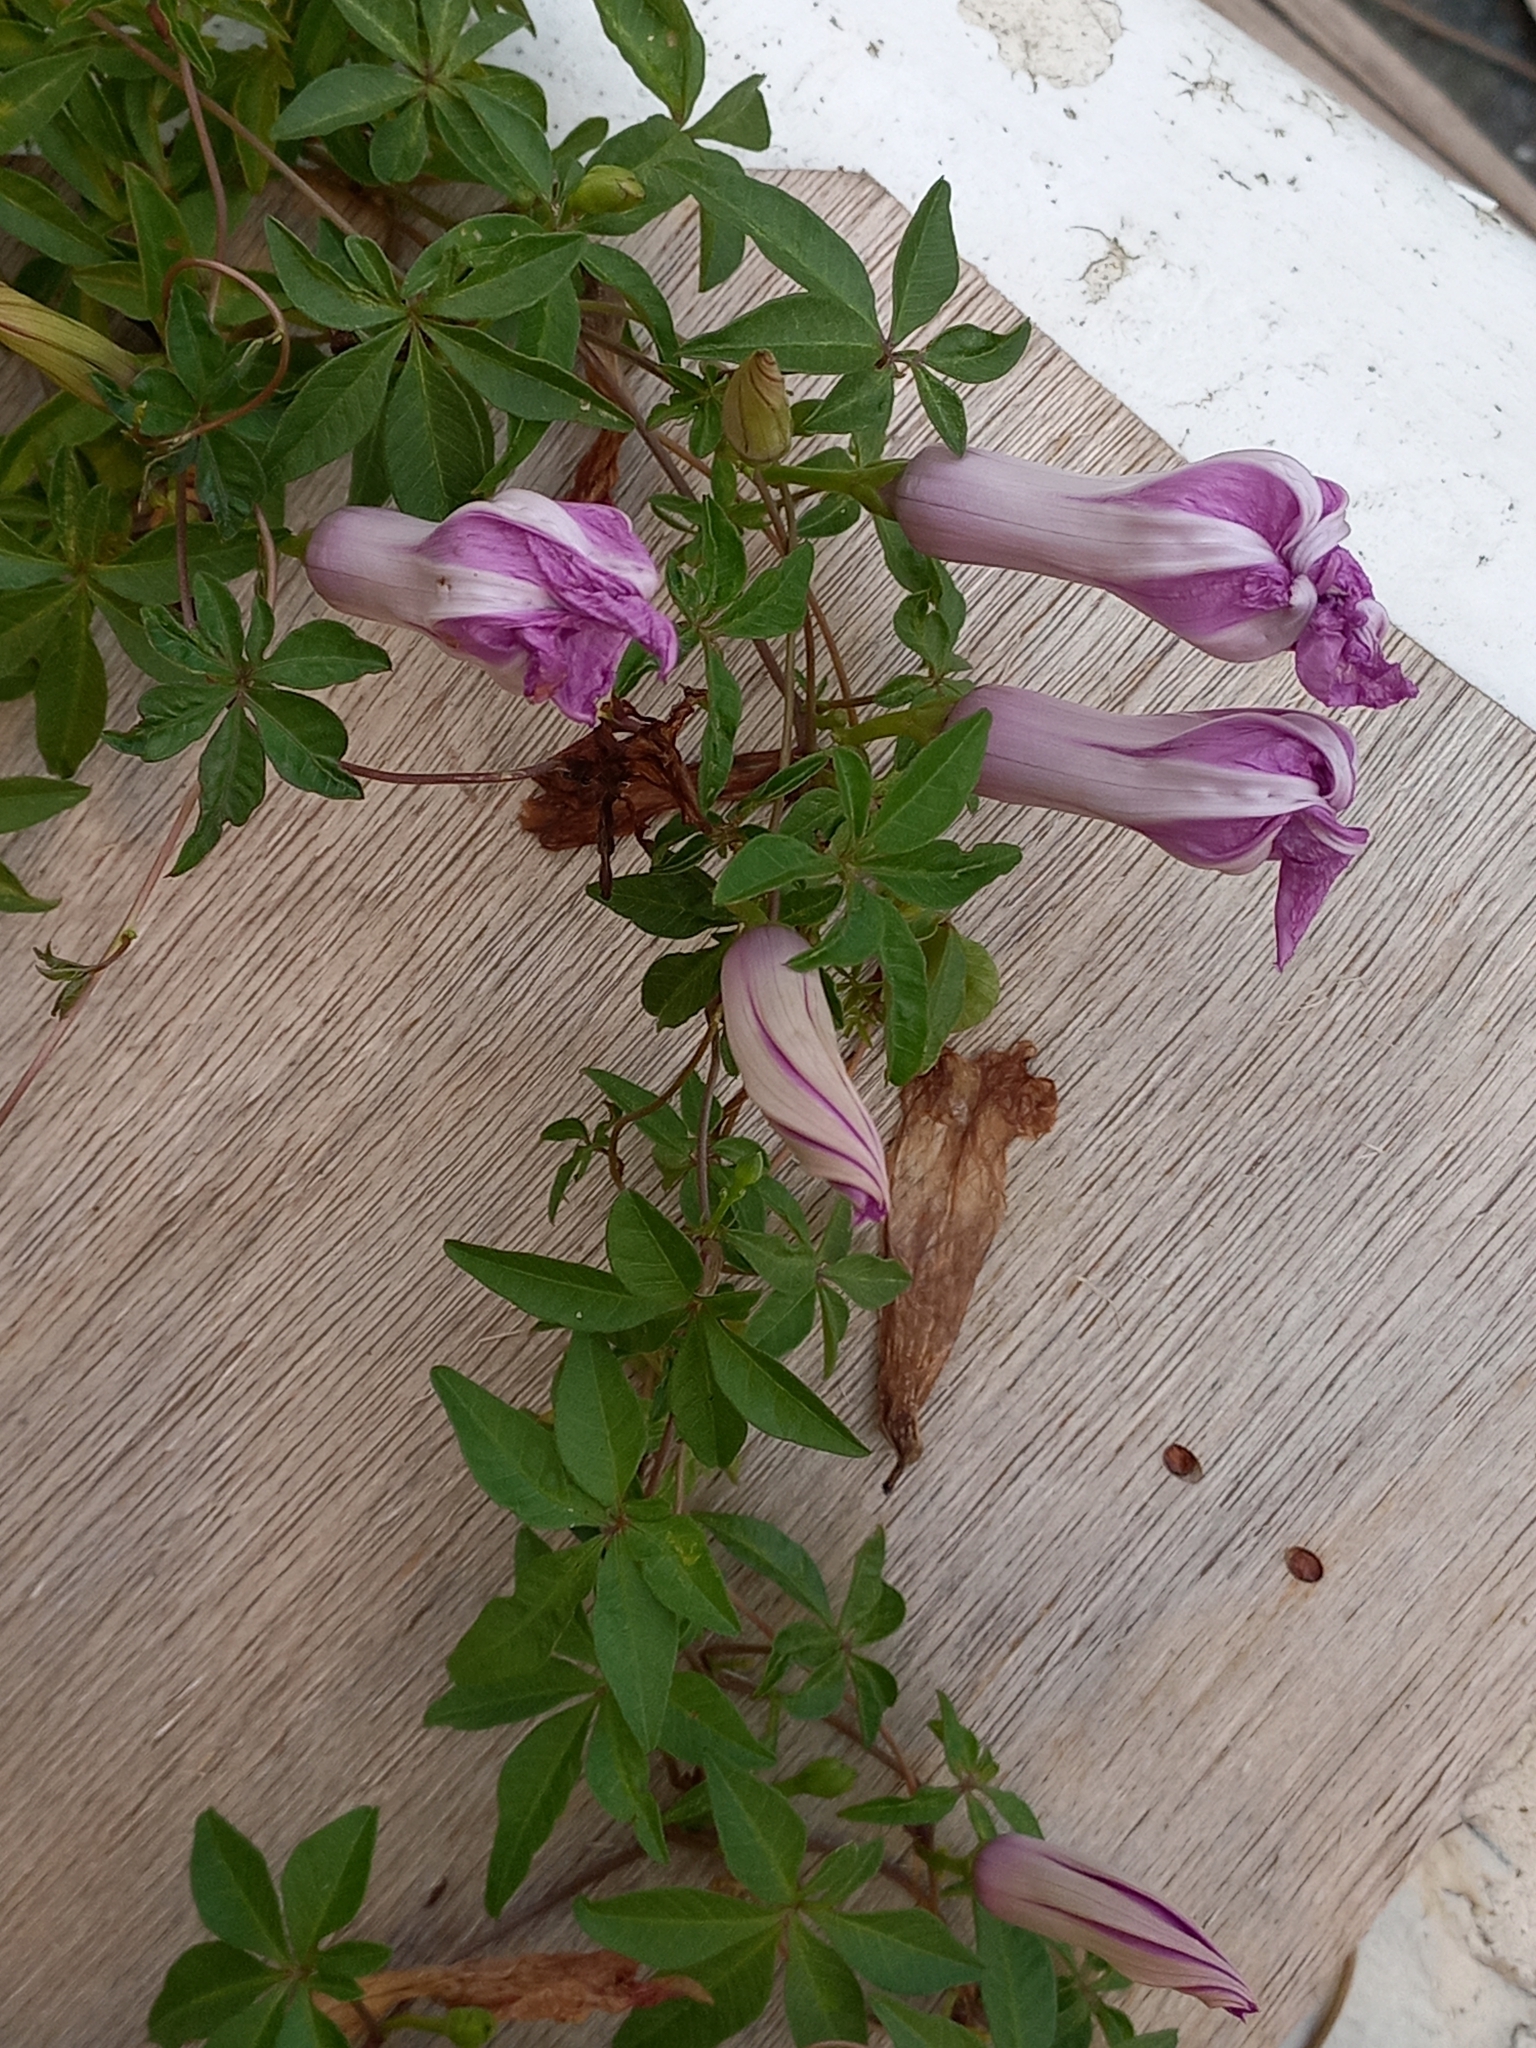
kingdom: Plantae
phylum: Tracheophyta
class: Magnoliopsida
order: Solanales
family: Convolvulaceae
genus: Ipomoea
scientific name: Ipomoea cairica
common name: Mile a minute vine
